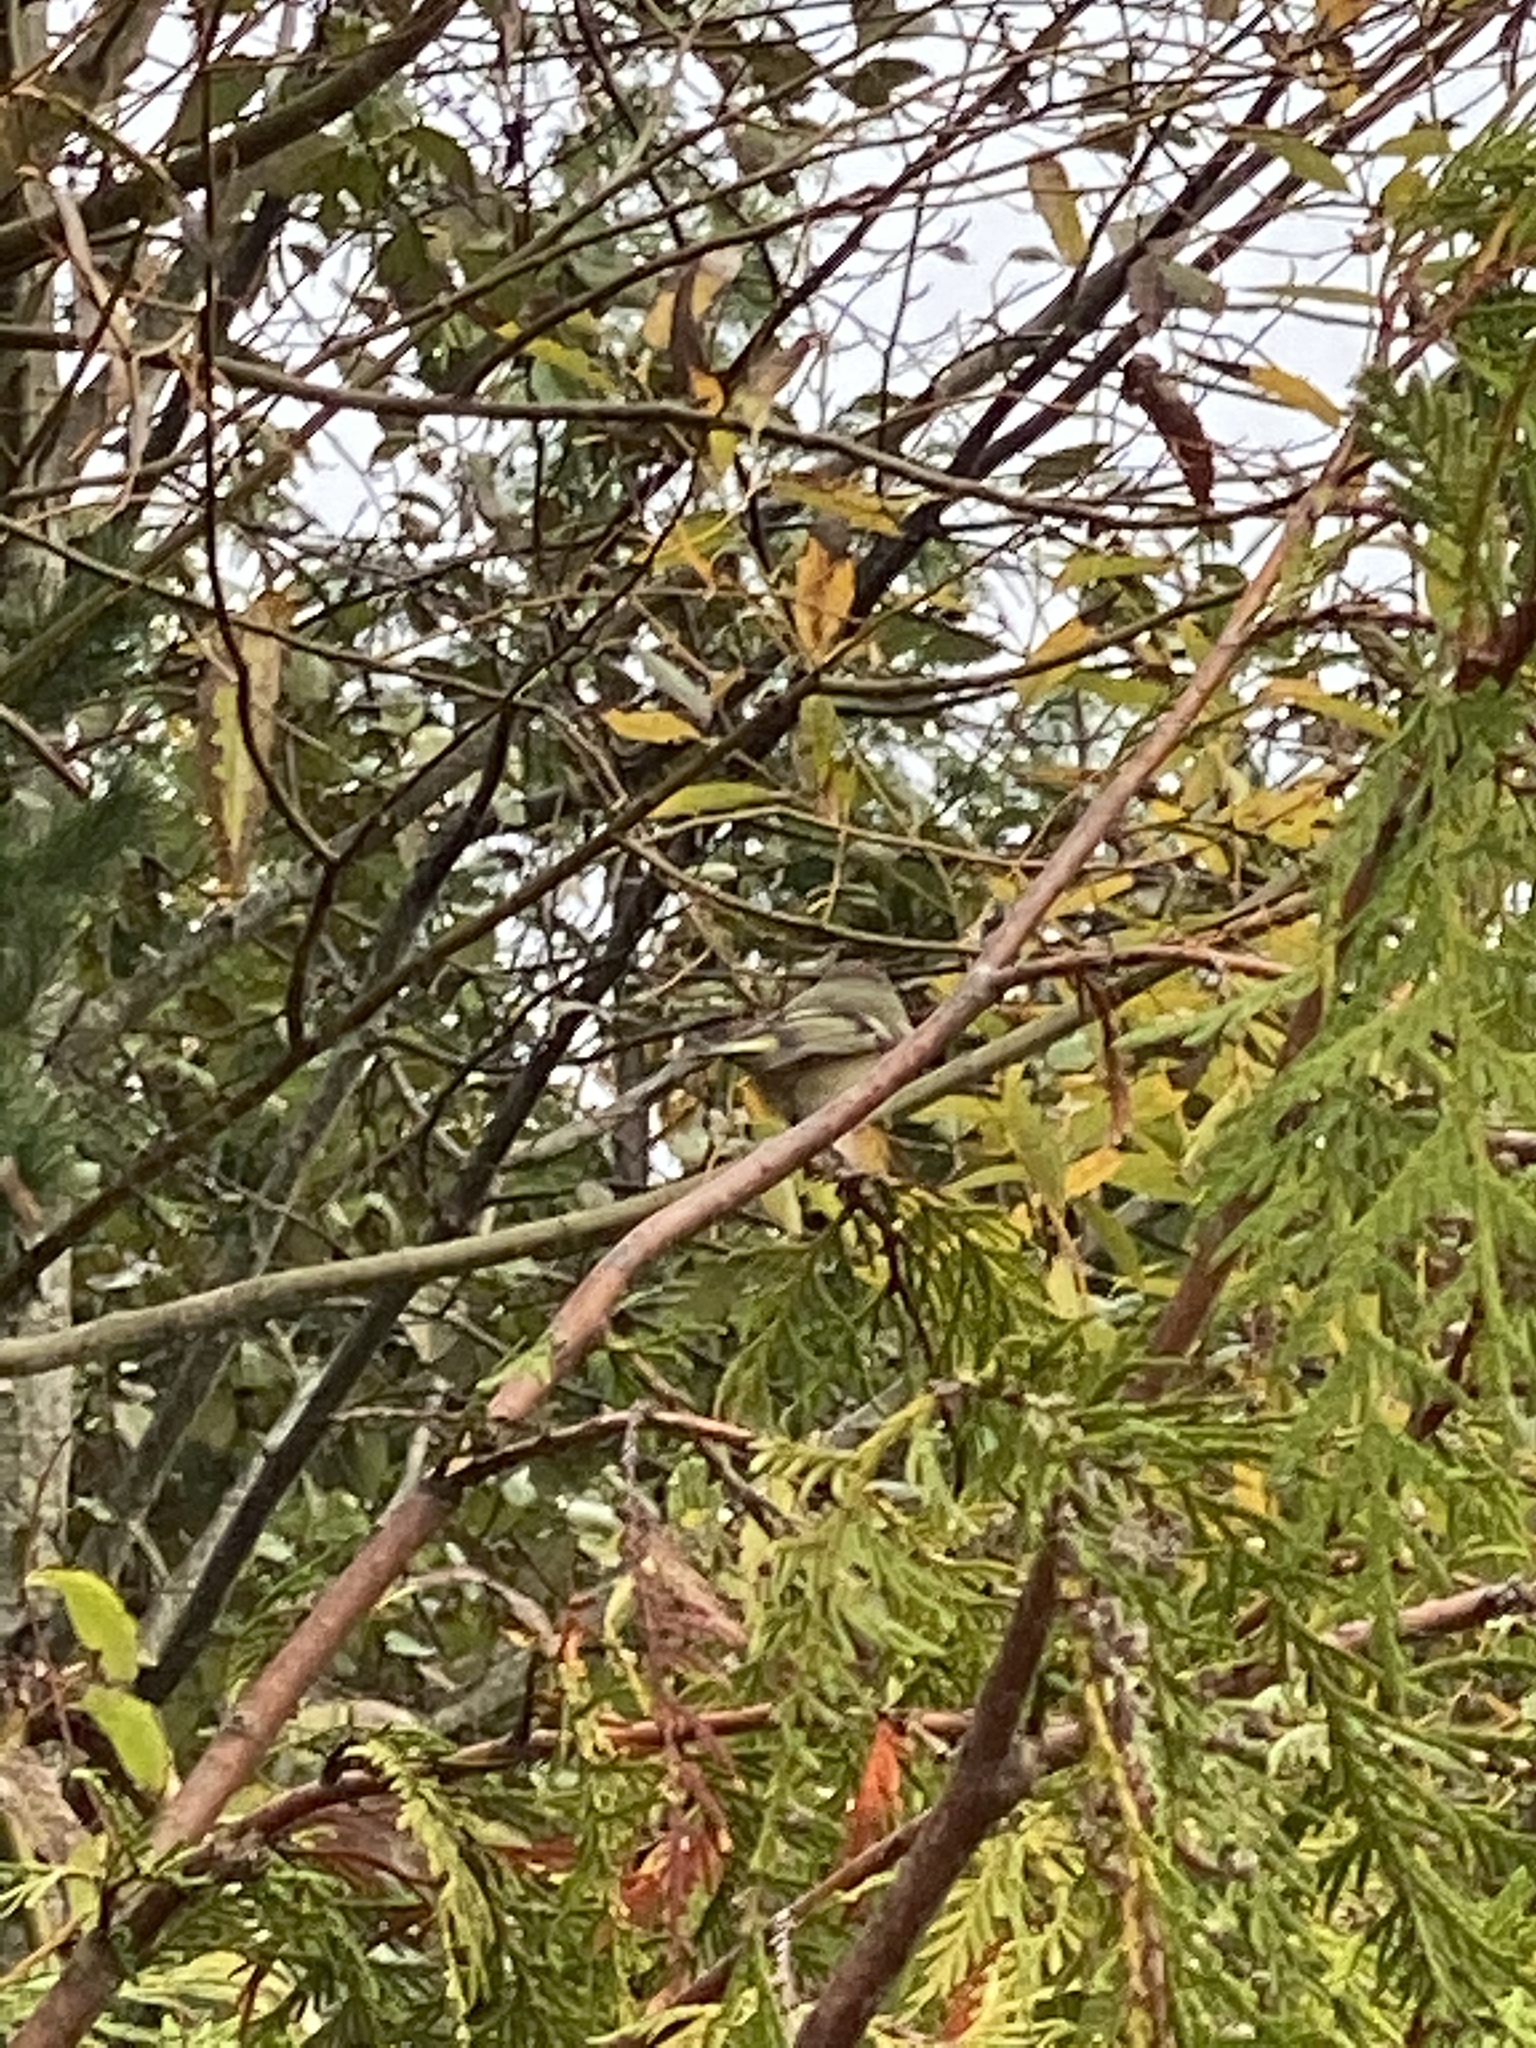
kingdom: Animalia
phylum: Chordata
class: Aves
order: Passeriformes
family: Regulidae
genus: Regulus
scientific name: Regulus calendula
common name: Ruby-crowned kinglet
